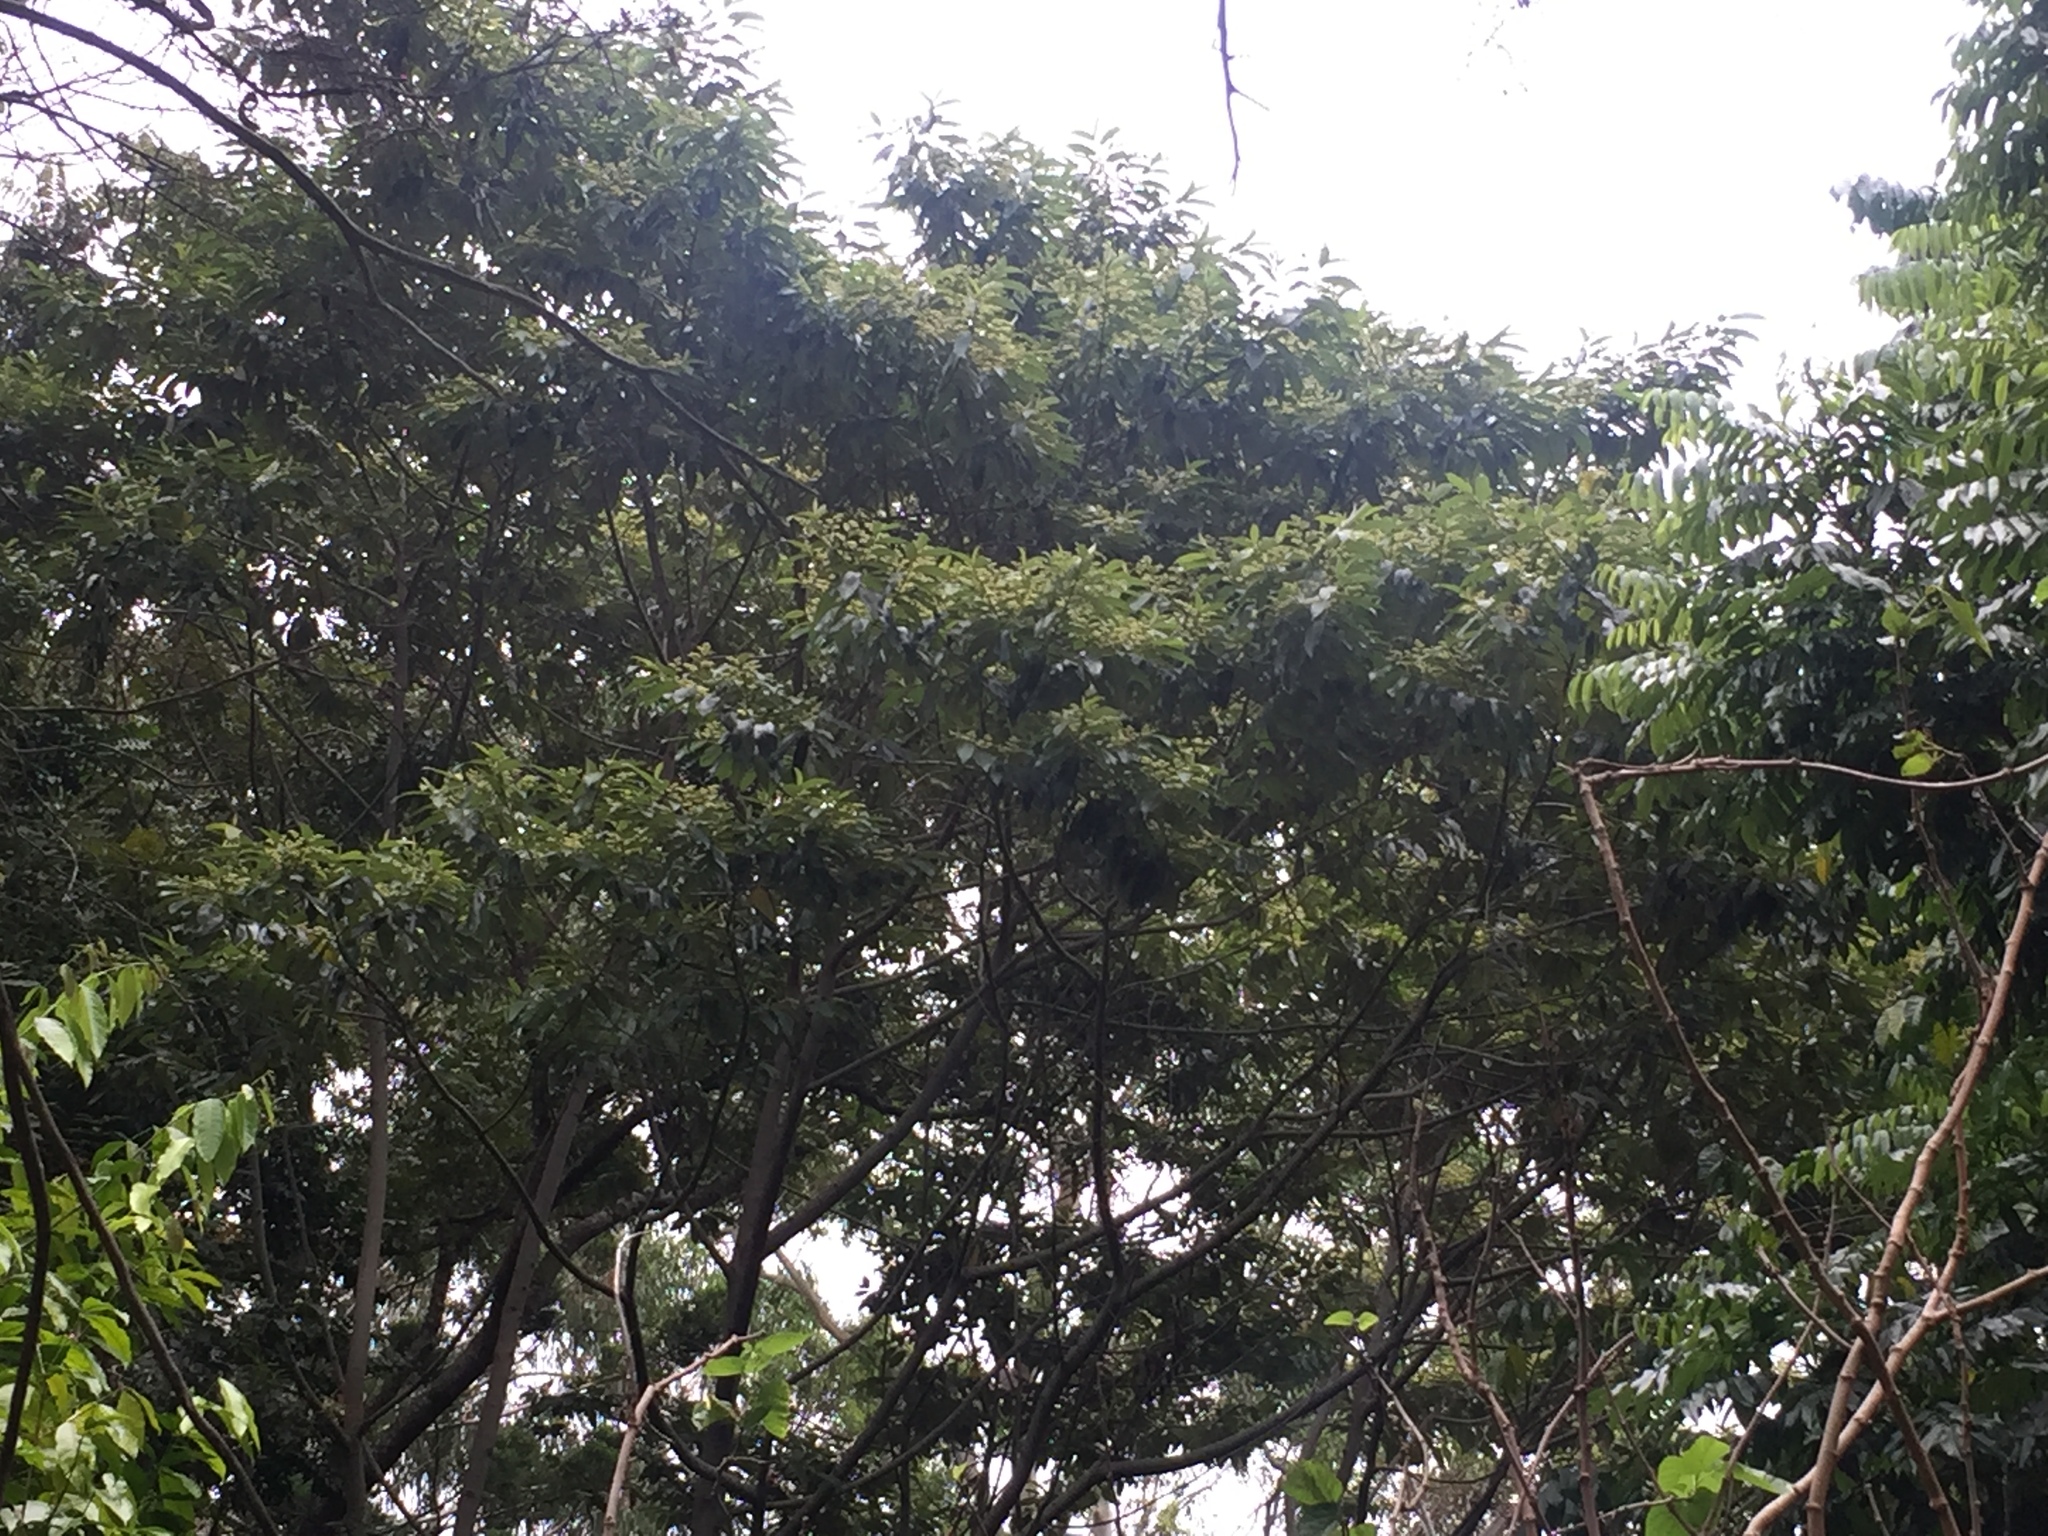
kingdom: Plantae
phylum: Tracheophyta
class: Magnoliopsida
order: Rosales
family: Rhamnaceae
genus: Alphitonia
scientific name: Alphitonia oblata
